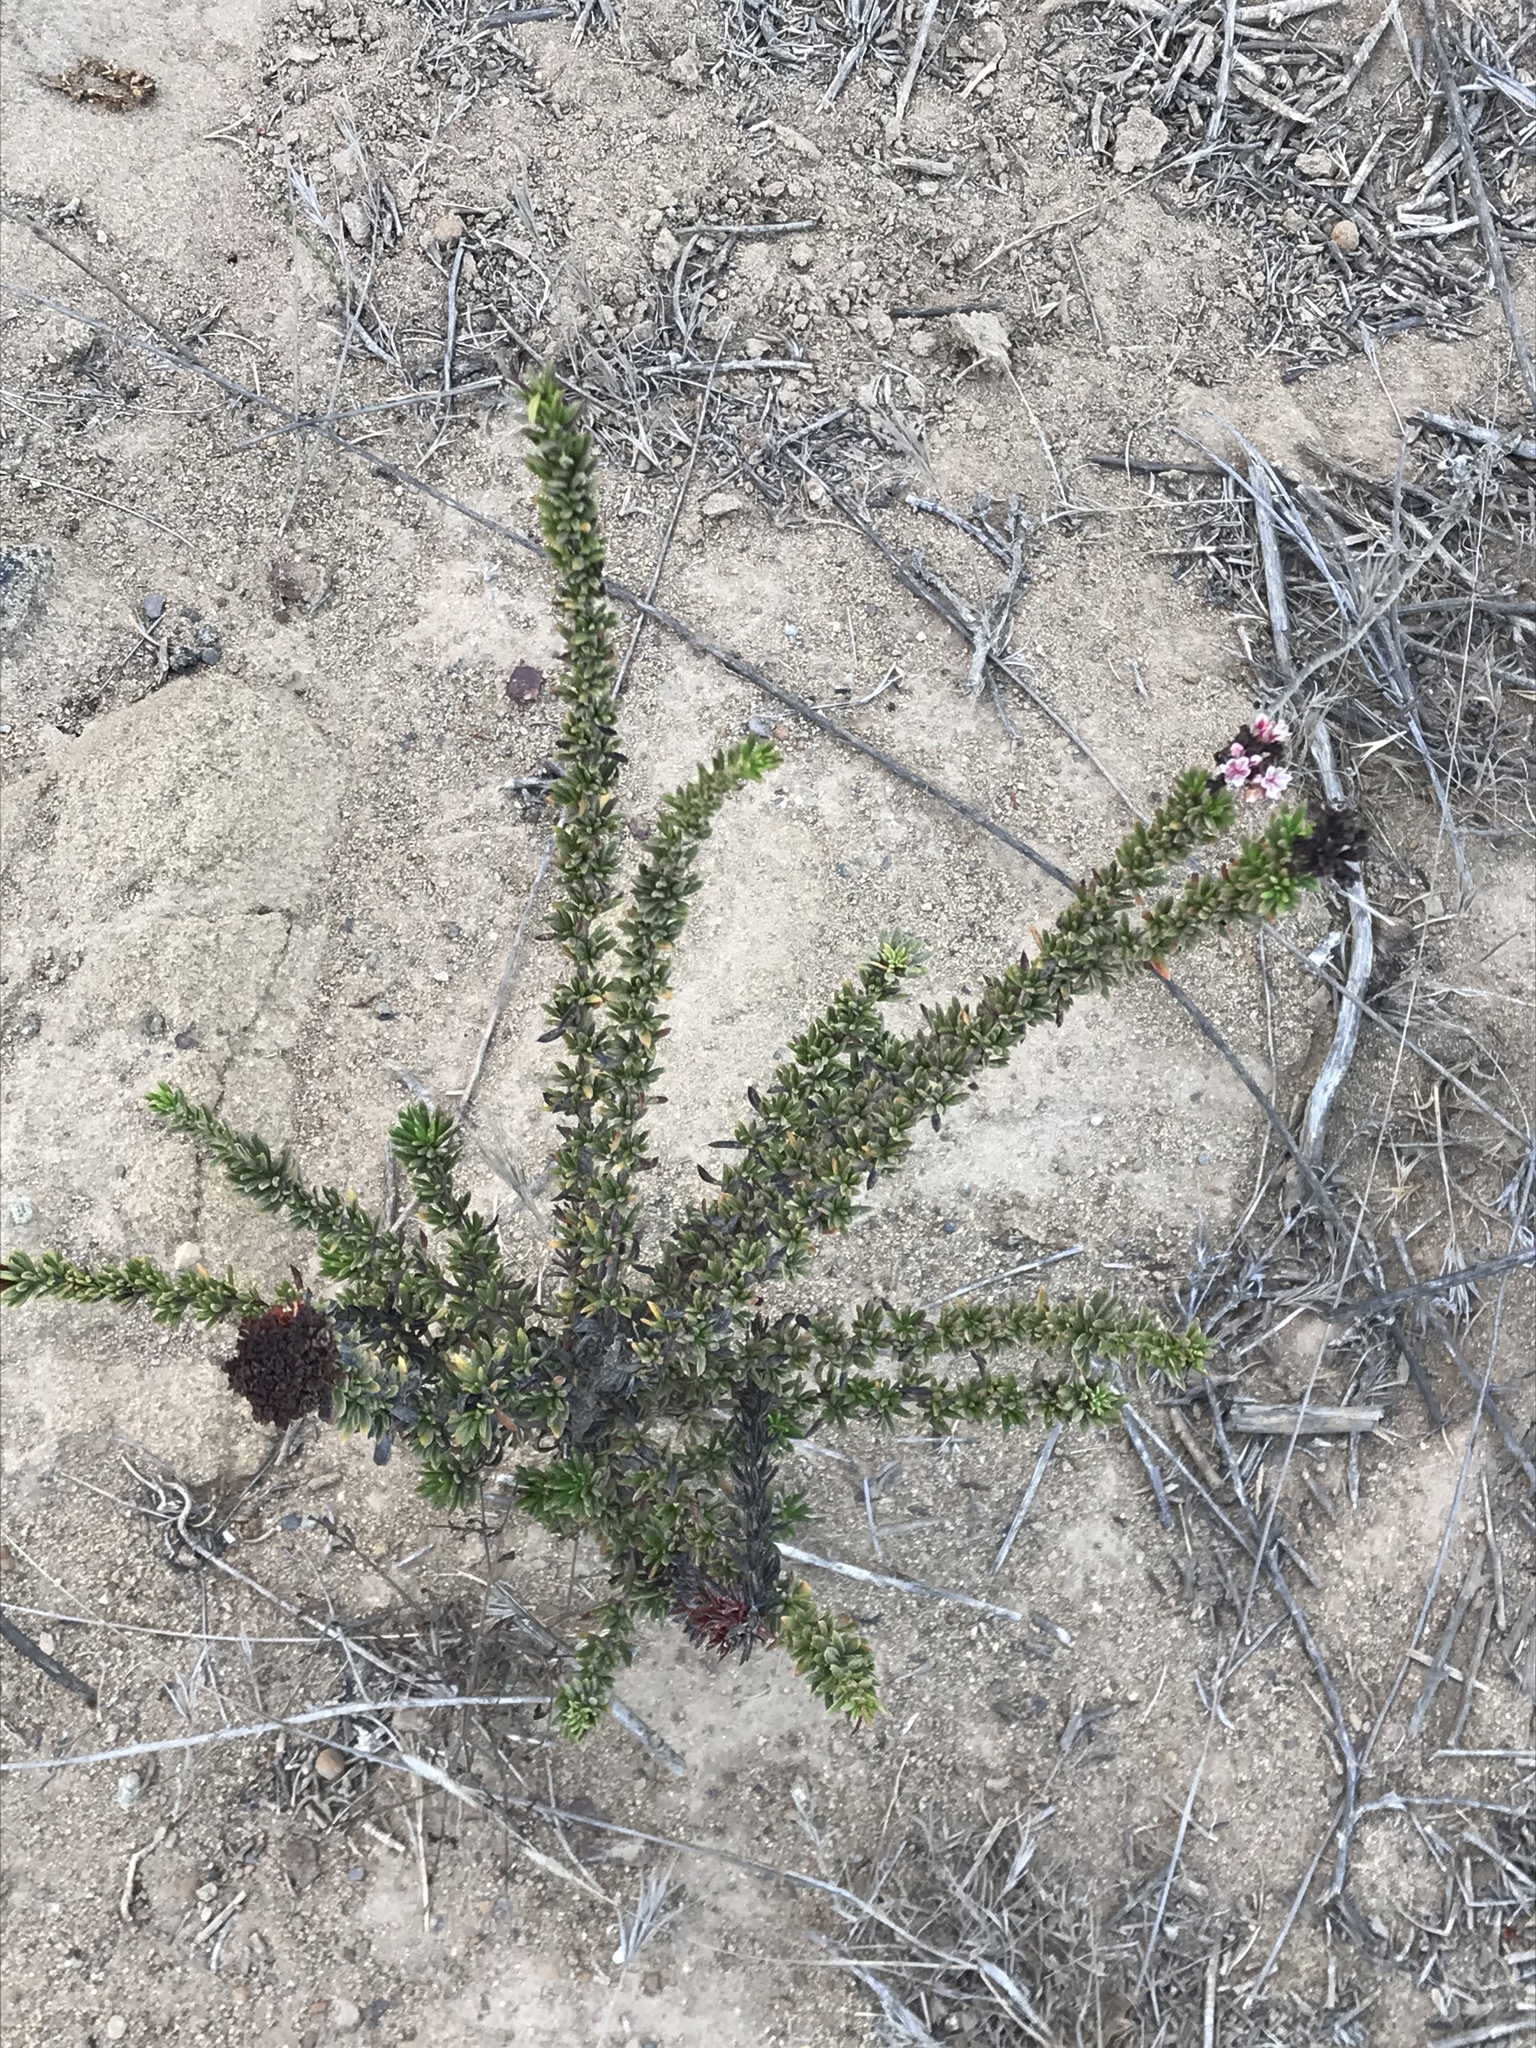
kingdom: Plantae
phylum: Tracheophyta
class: Magnoliopsida
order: Caryophyllales
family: Polygonaceae
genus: Eriogonum
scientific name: Eriogonum fasciculatum
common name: California wild buckwheat
